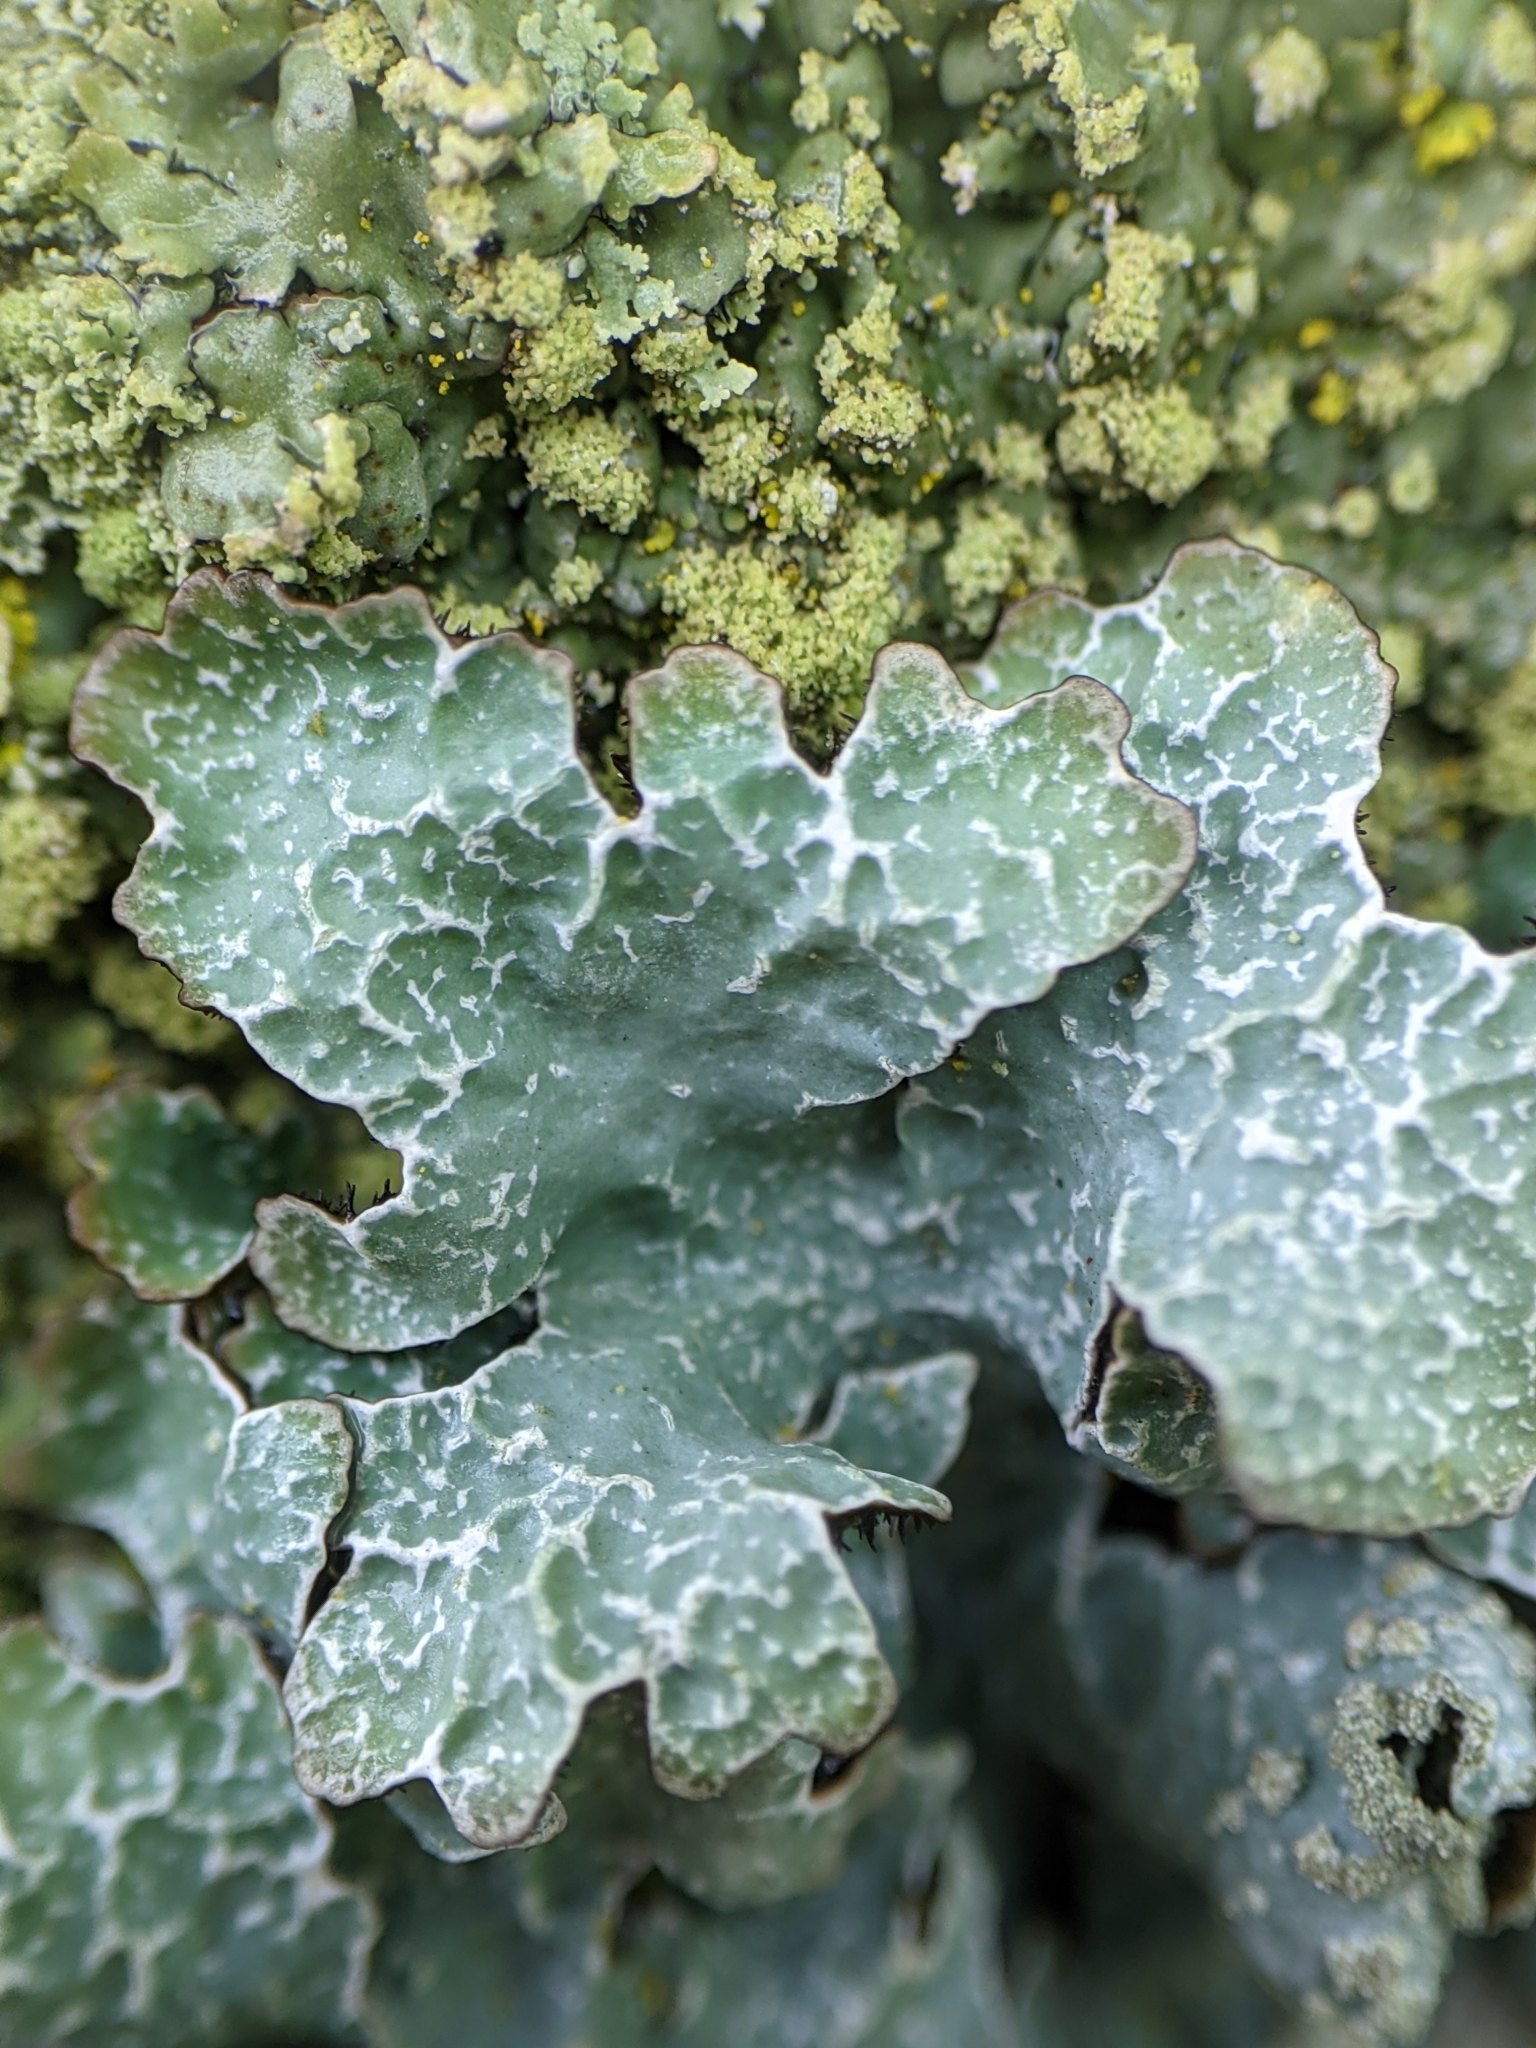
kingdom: Fungi
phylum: Ascomycota
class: Lecanoromycetes
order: Lecanorales
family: Parmeliaceae
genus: Parmelia
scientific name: Parmelia sulcata
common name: Netted shield lichen
